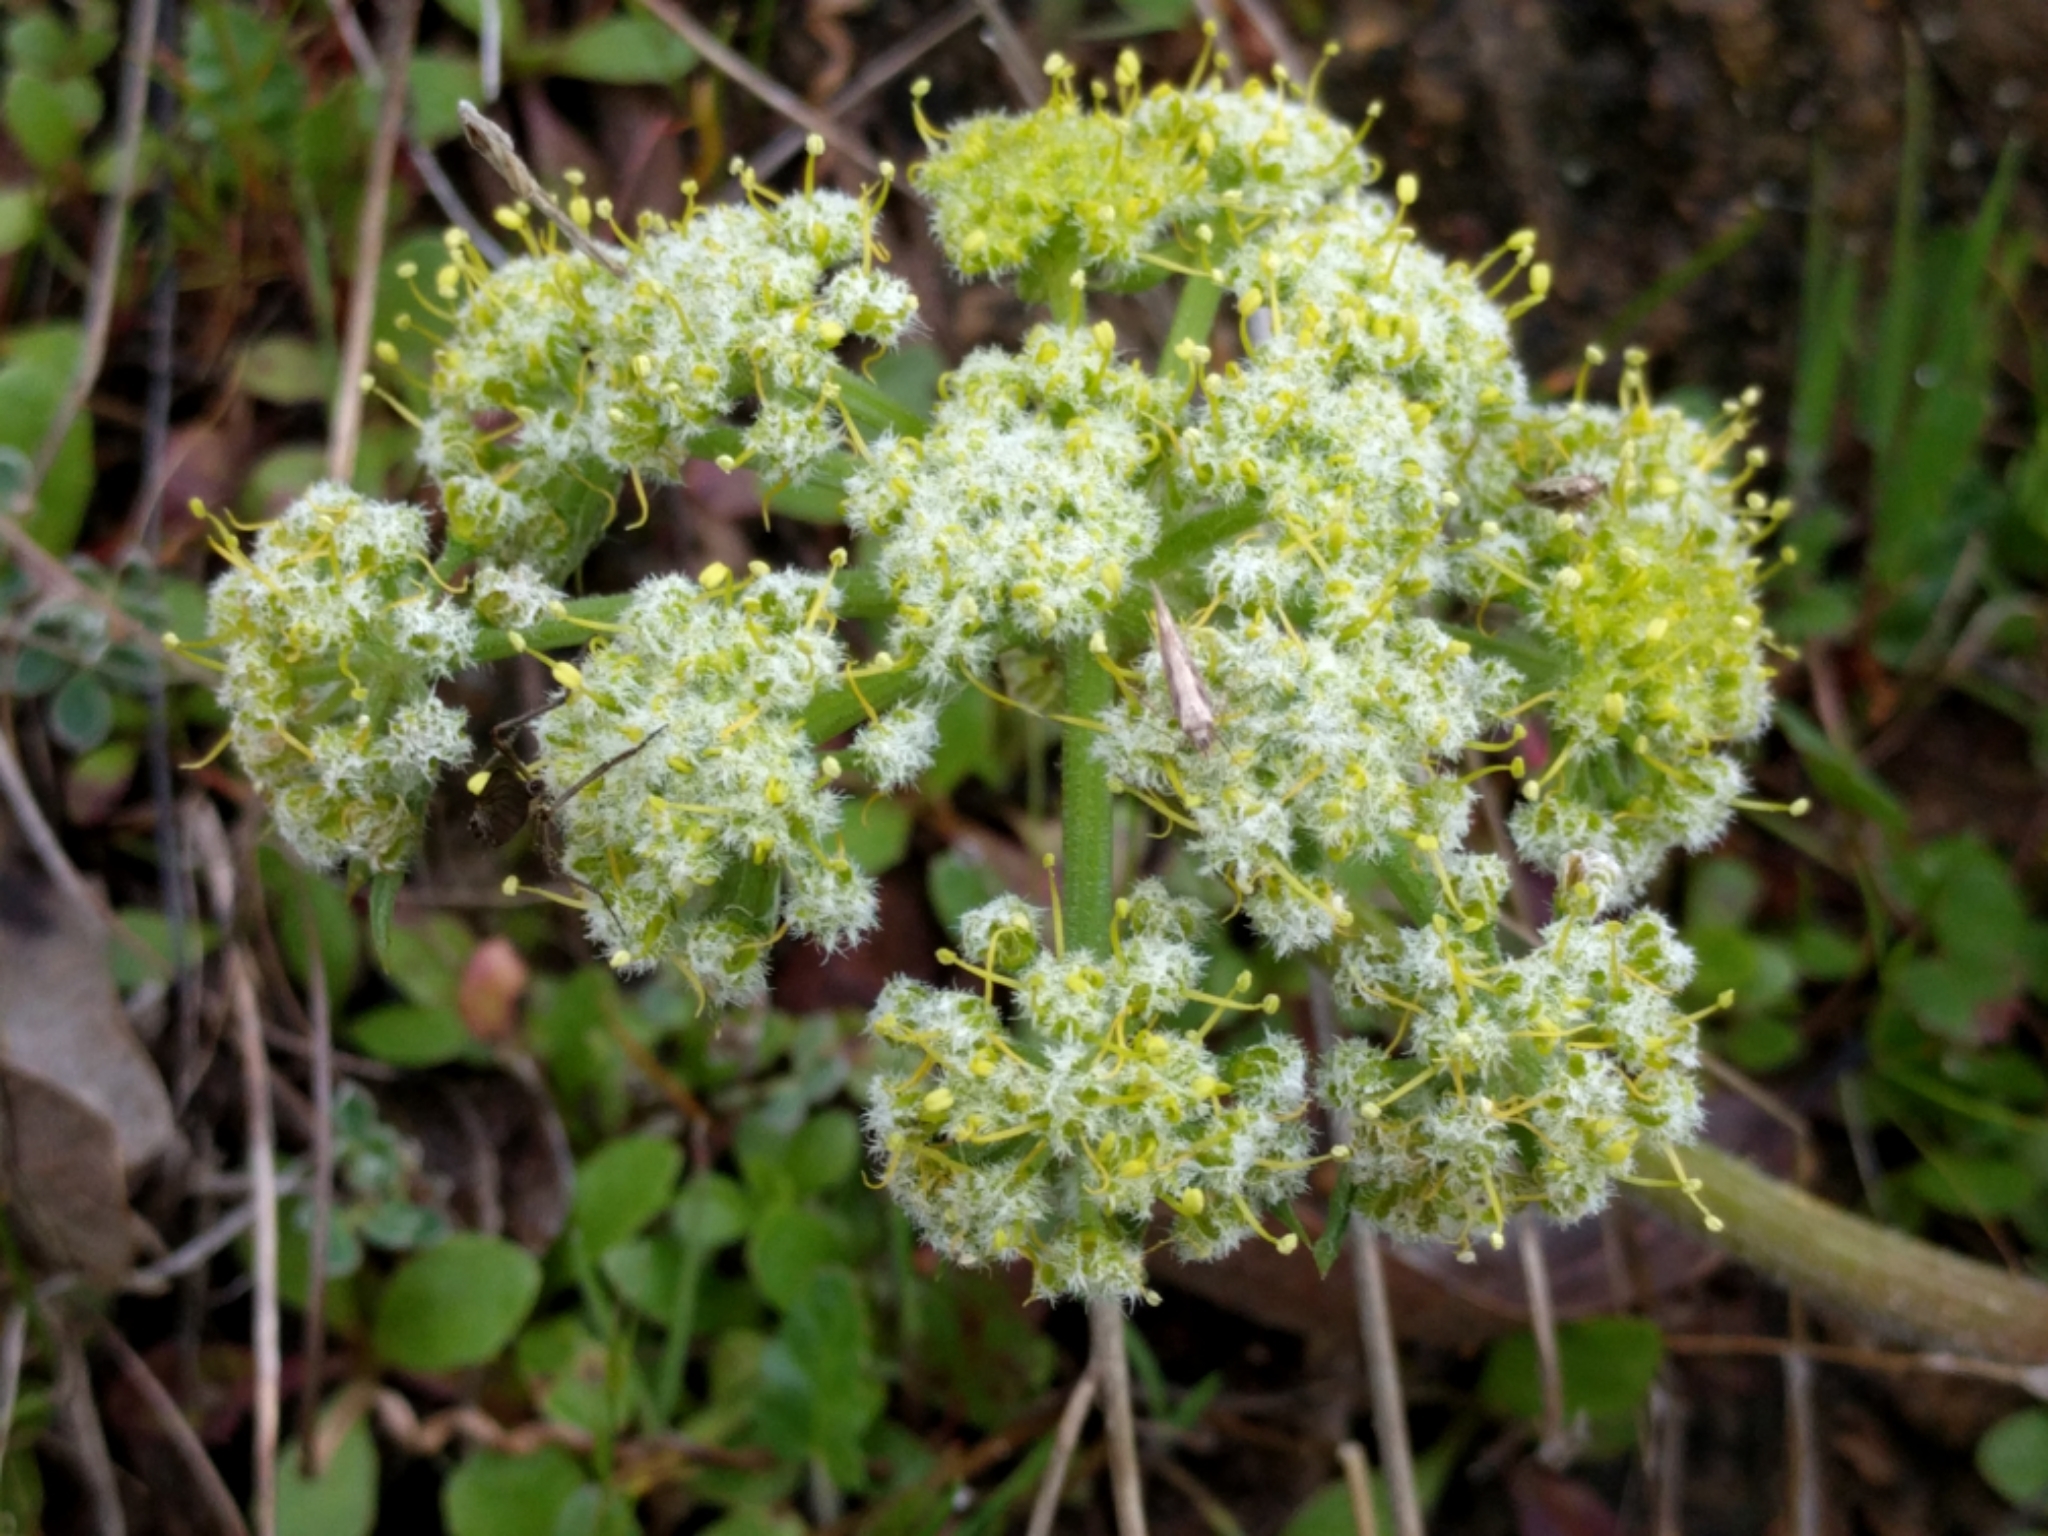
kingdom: Plantae
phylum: Tracheophyta
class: Magnoliopsida
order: Apiales
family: Apiaceae
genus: Lomatium
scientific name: Lomatium dasycarpum
